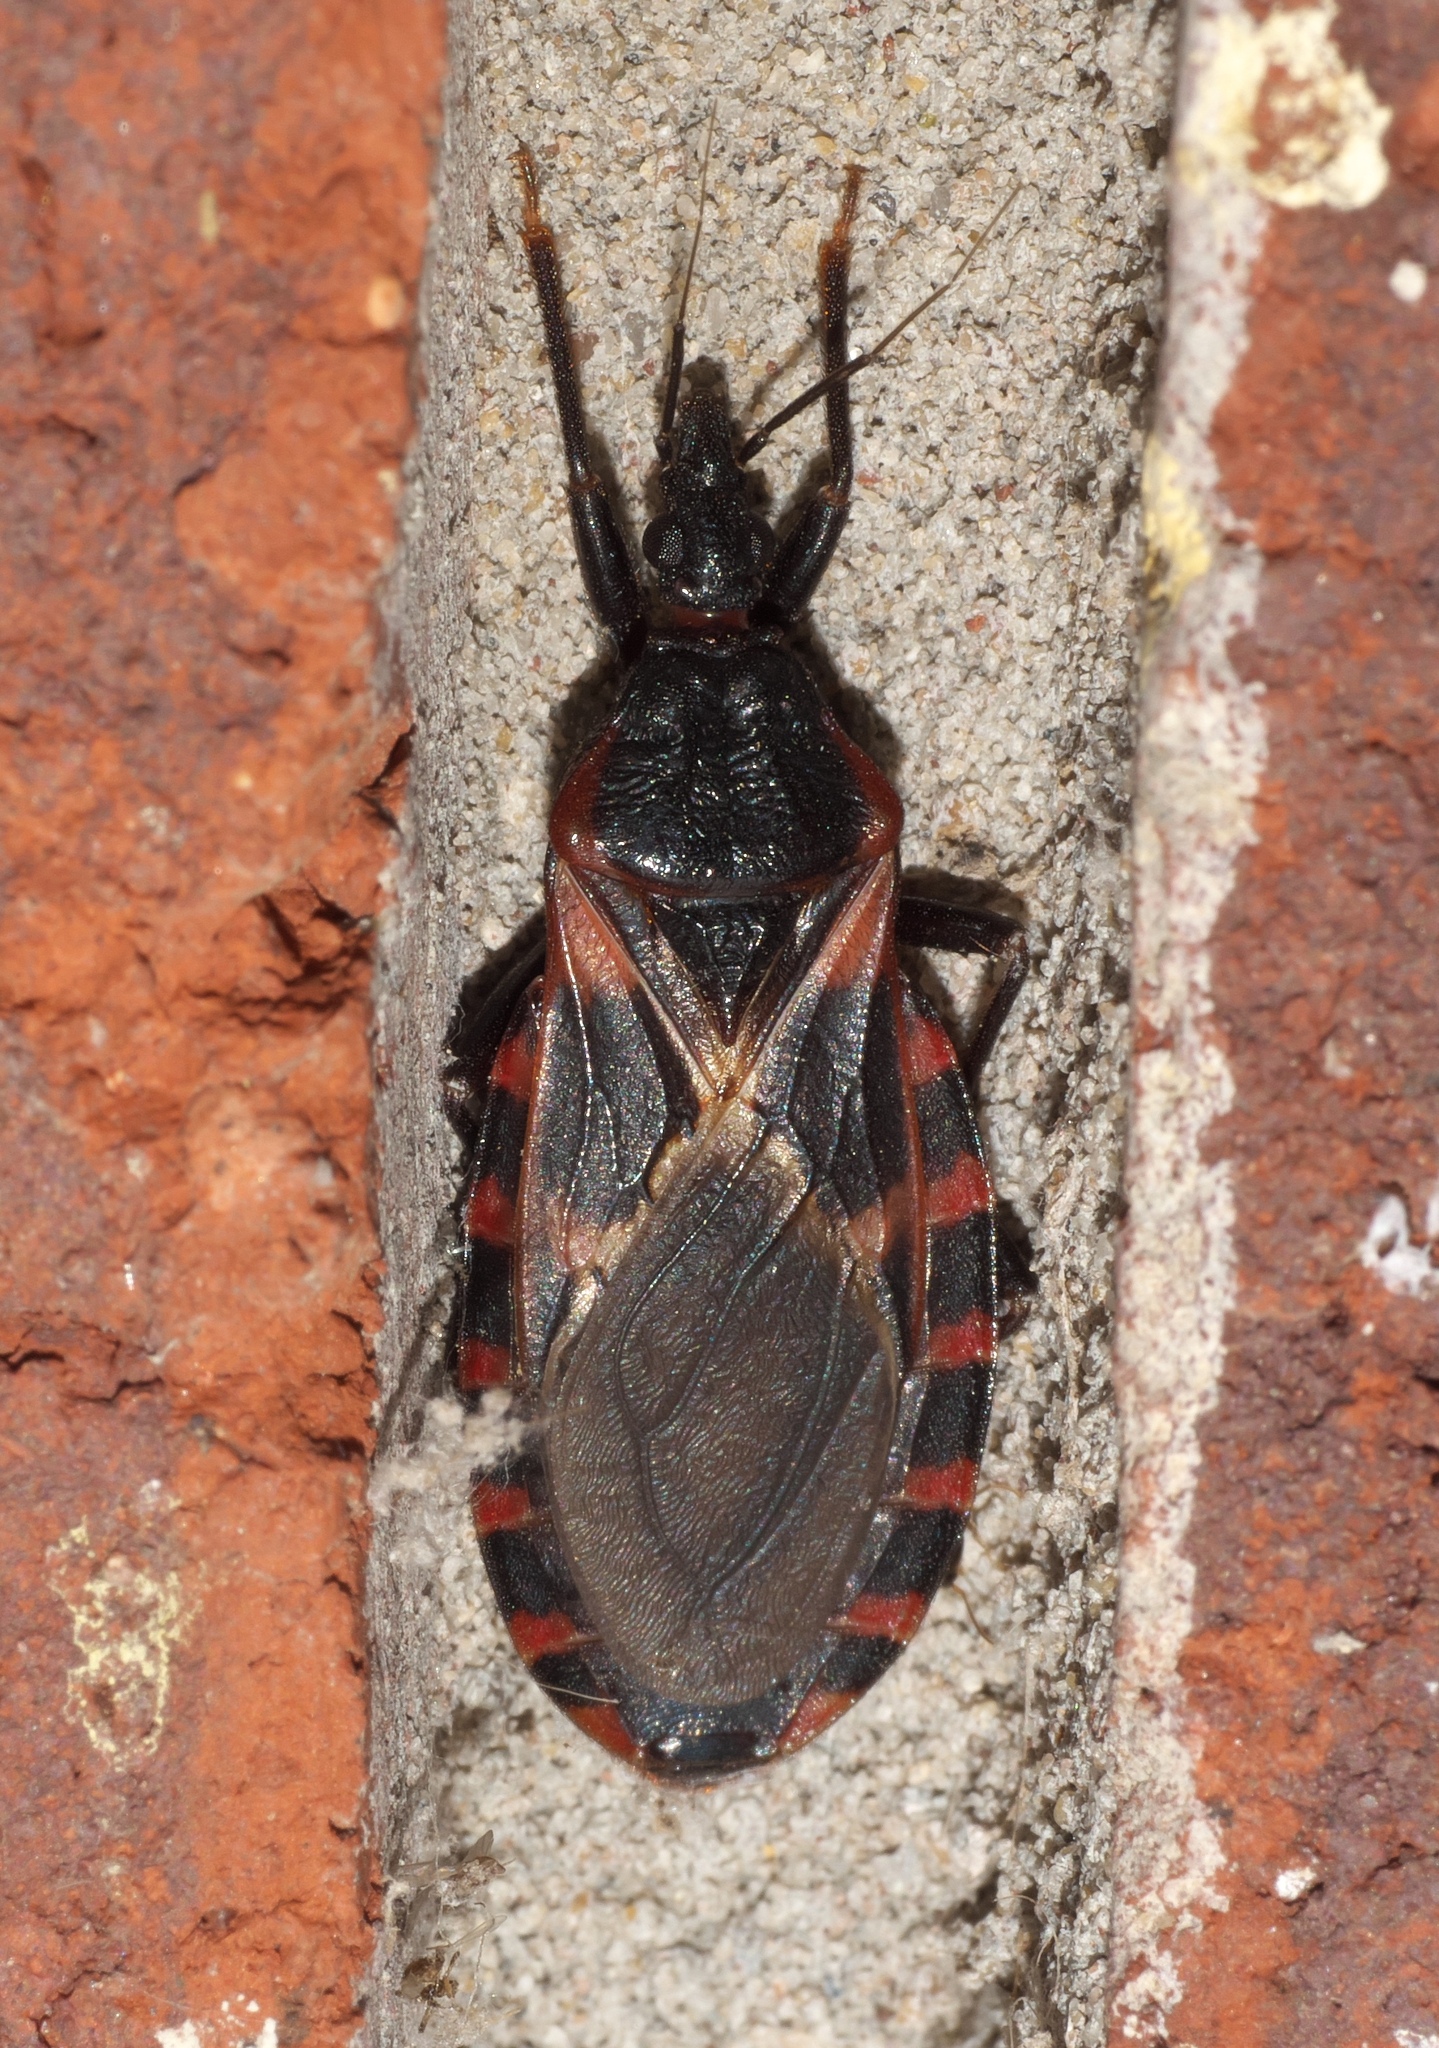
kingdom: Animalia
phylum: Arthropoda
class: Insecta
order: Hemiptera
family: Reduviidae
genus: Triatoma
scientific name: Triatoma sanguisuga
